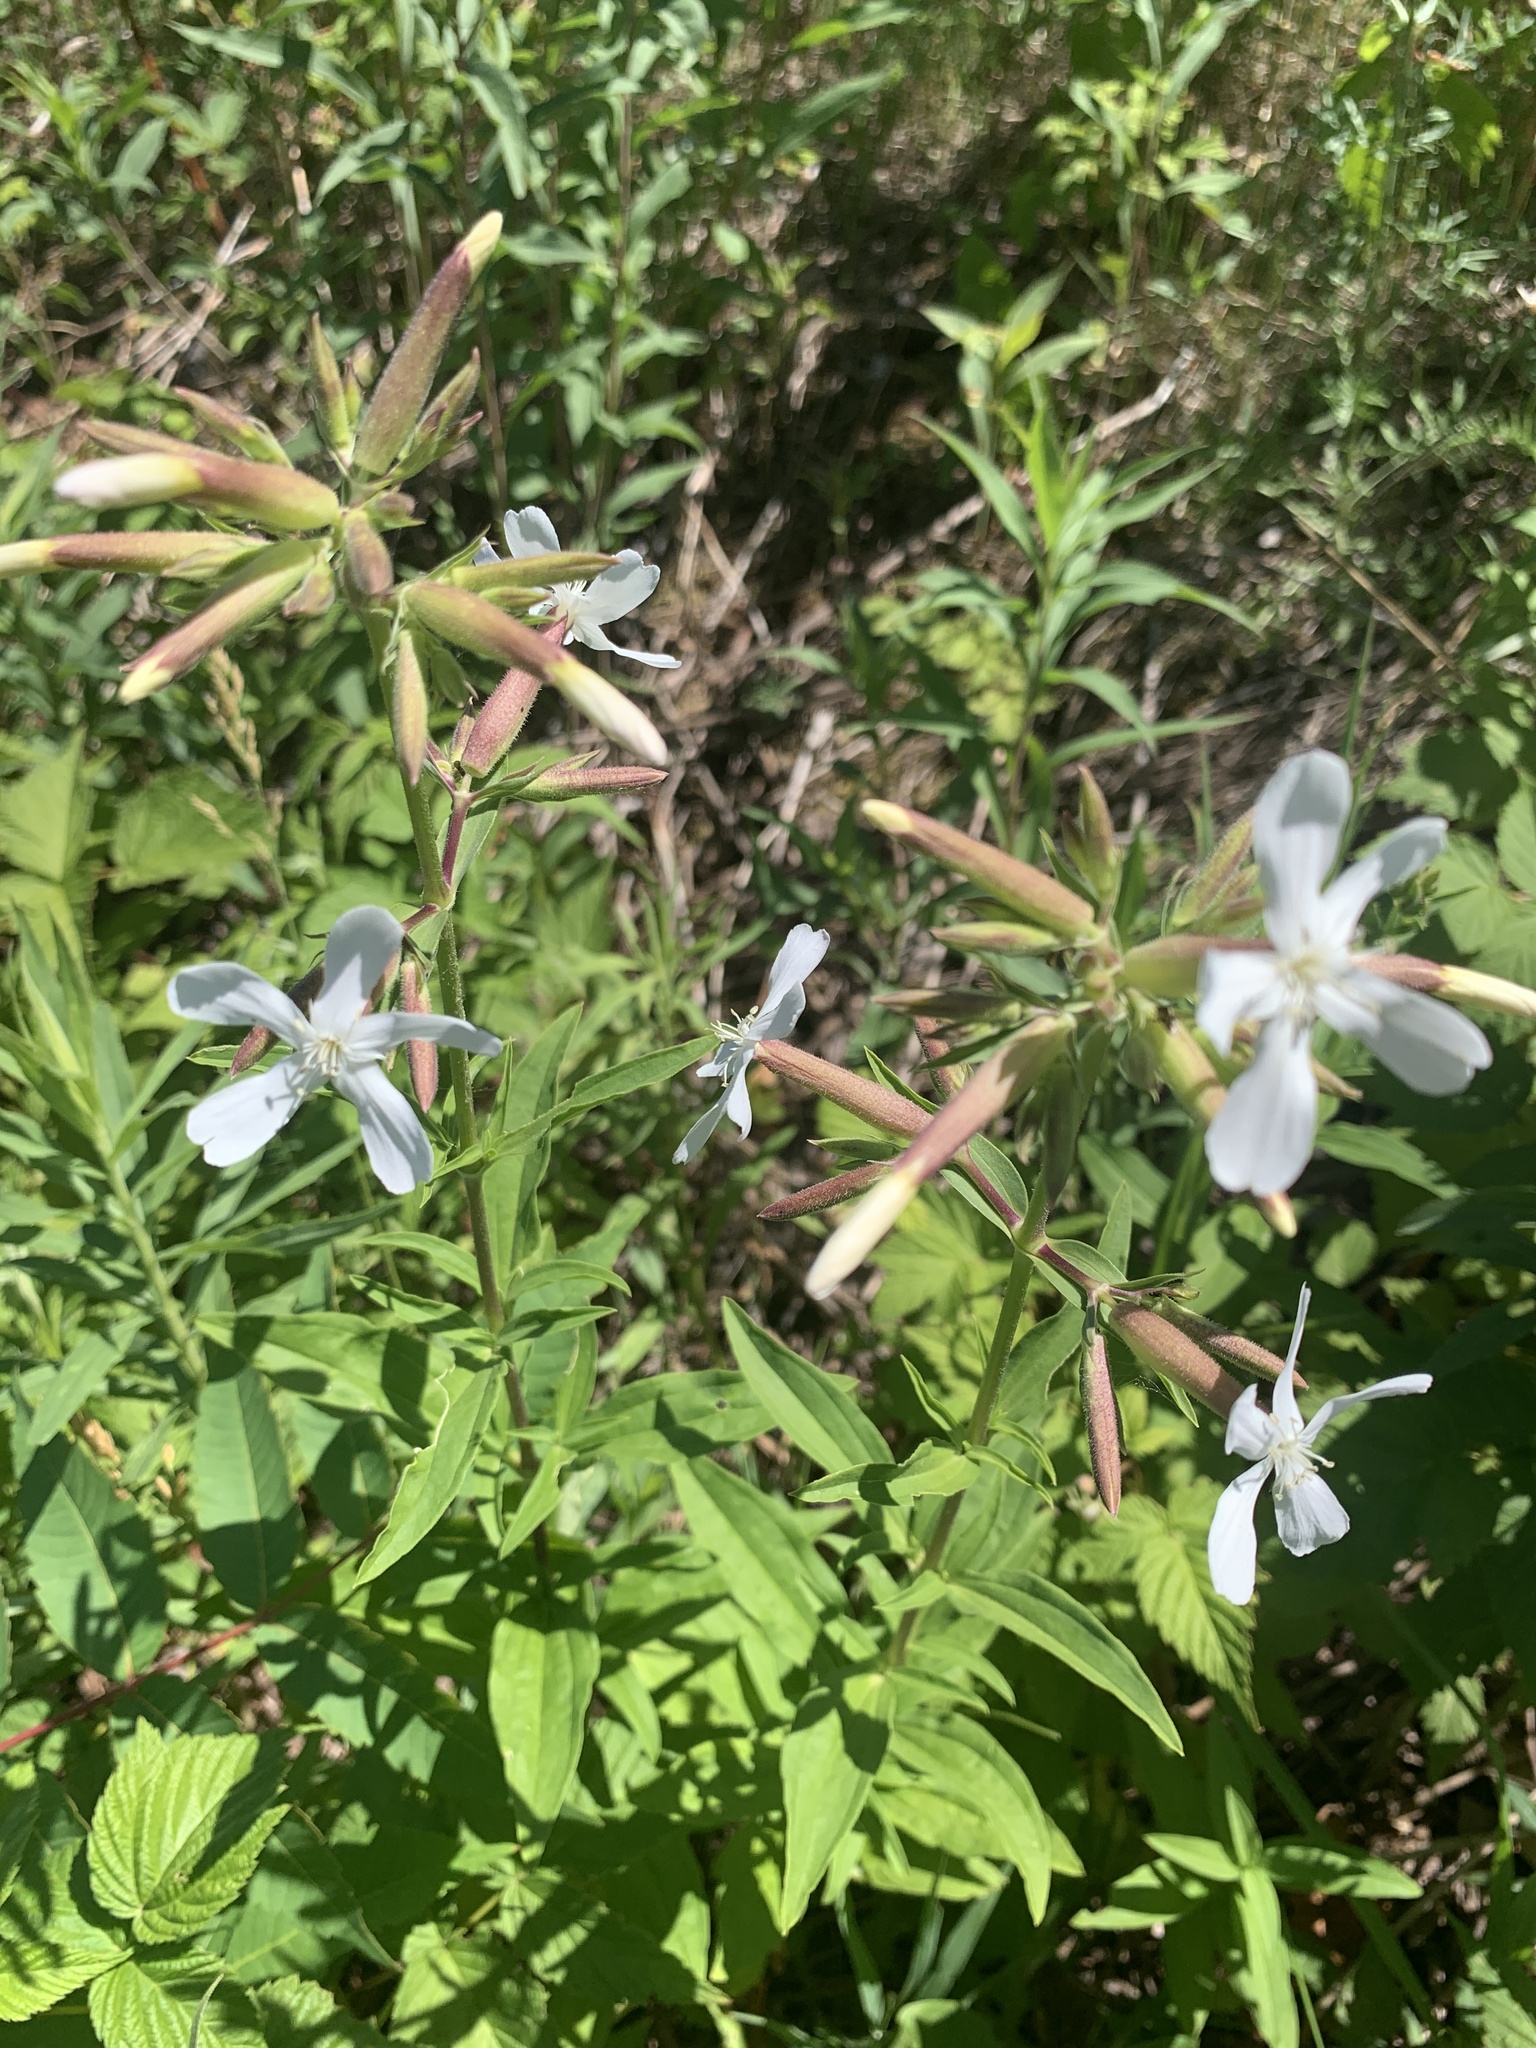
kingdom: Plantae
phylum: Tracheophyta
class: Magnoliopsida
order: Caryophyllales
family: Caryophyllaceae
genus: Saponaria
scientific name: Saponaria officinalis
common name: Soapwort
